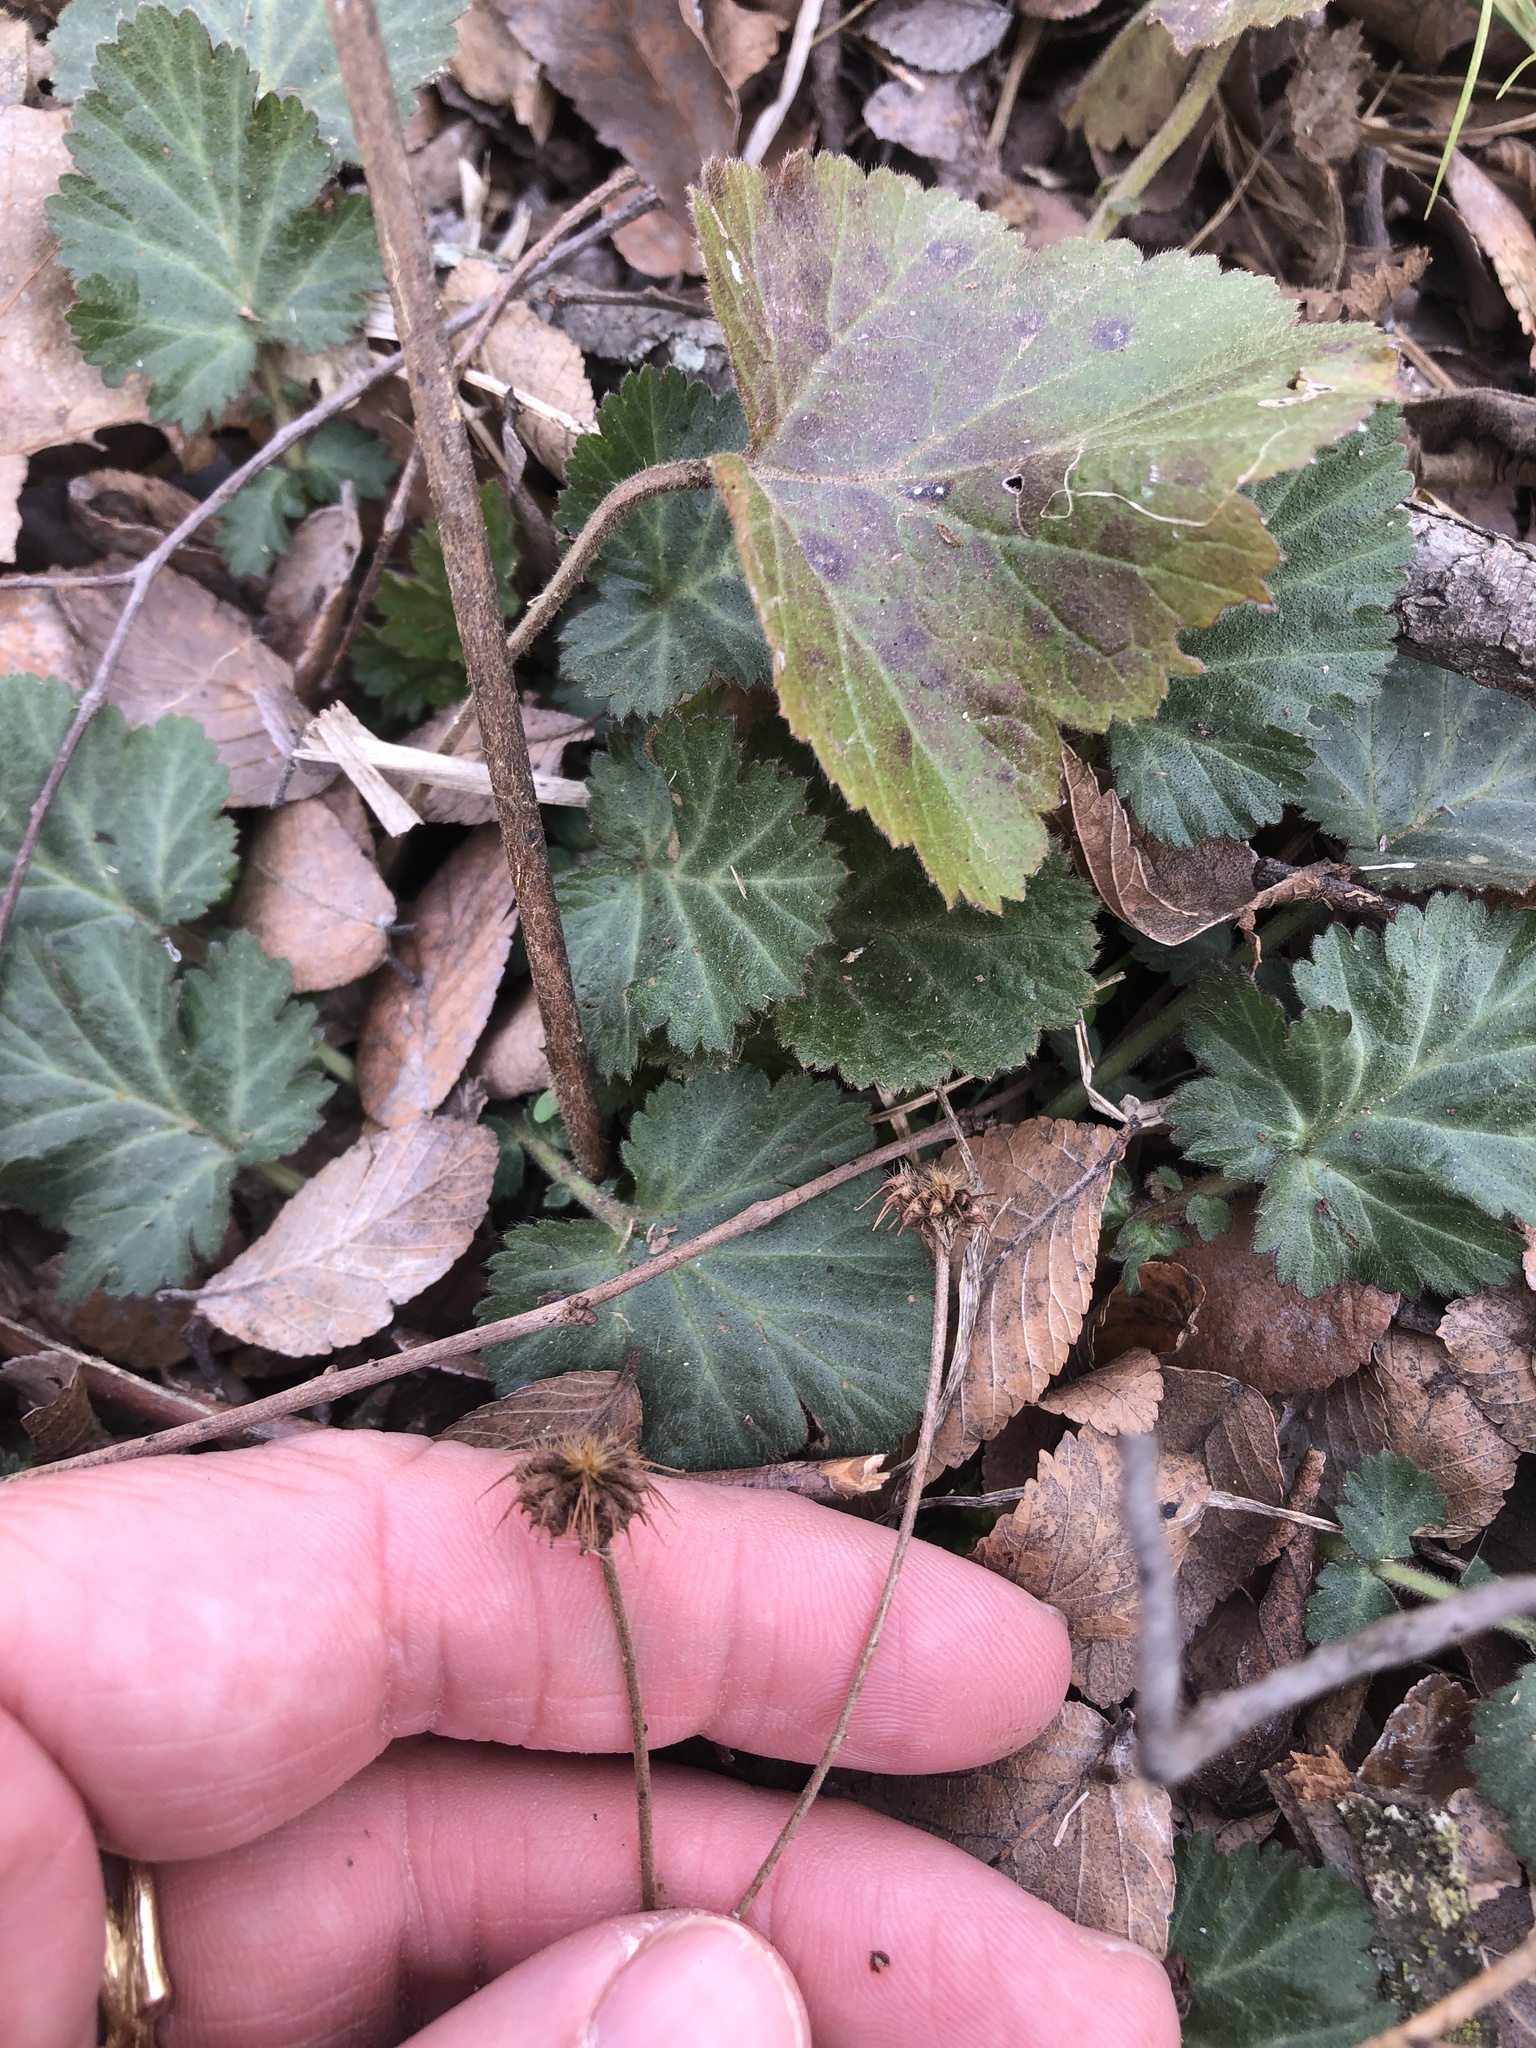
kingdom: Plantae
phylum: Tracheophyta
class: Magnoliopsida
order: Rosales
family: Rosaceae
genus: Geum
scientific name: Geum canadense
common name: White avens
